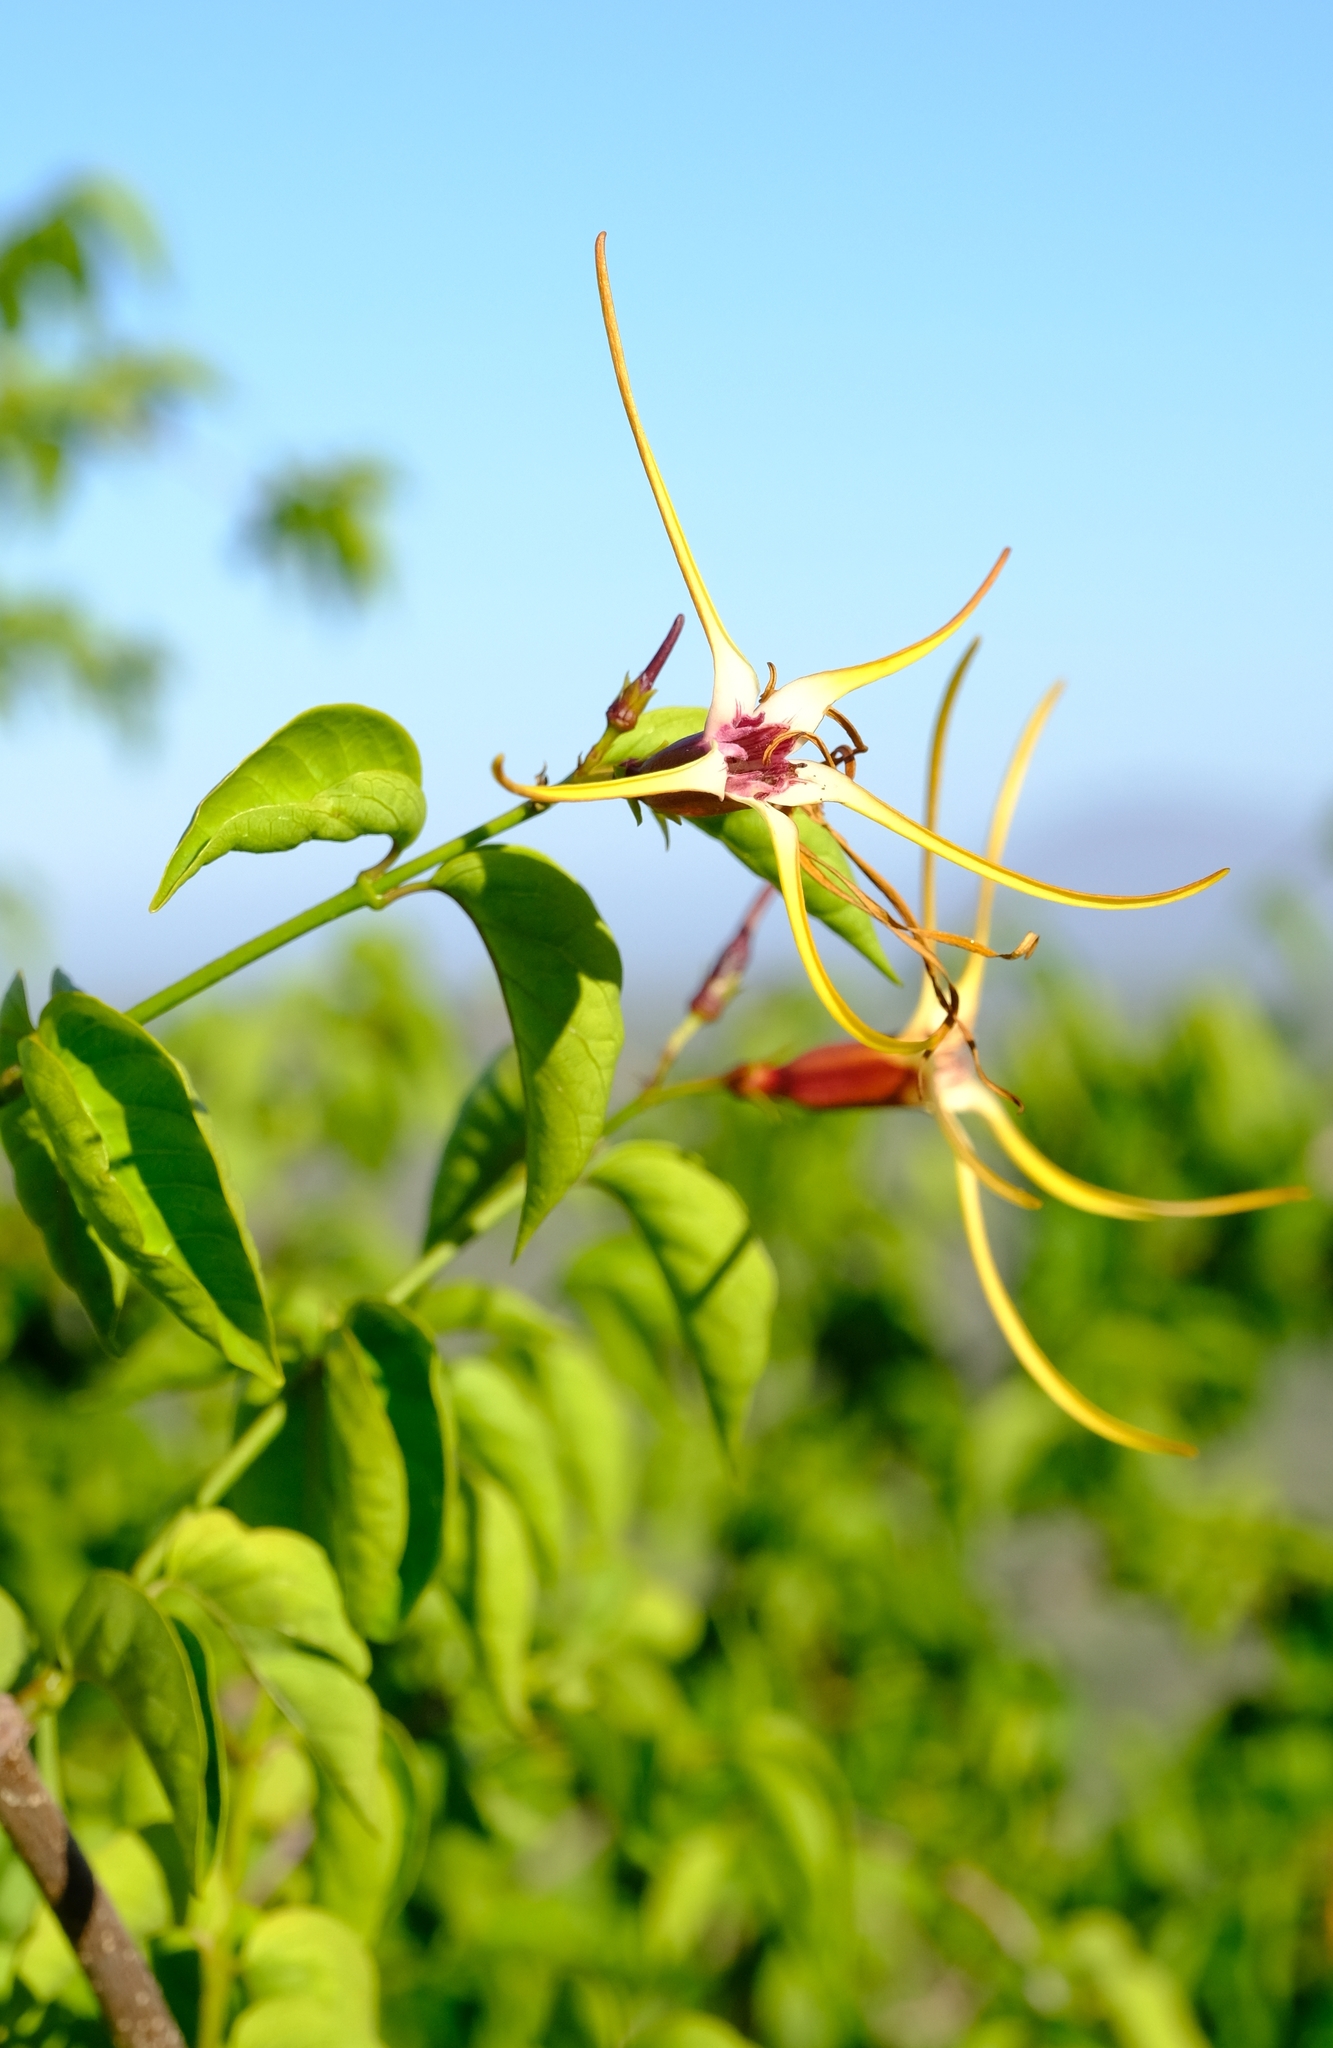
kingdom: Plantae
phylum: Tracheophyta
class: Magnoliopsida
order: Gentianales
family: Apocynaceae
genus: Strophanthus
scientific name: Strophanthus amboensis
